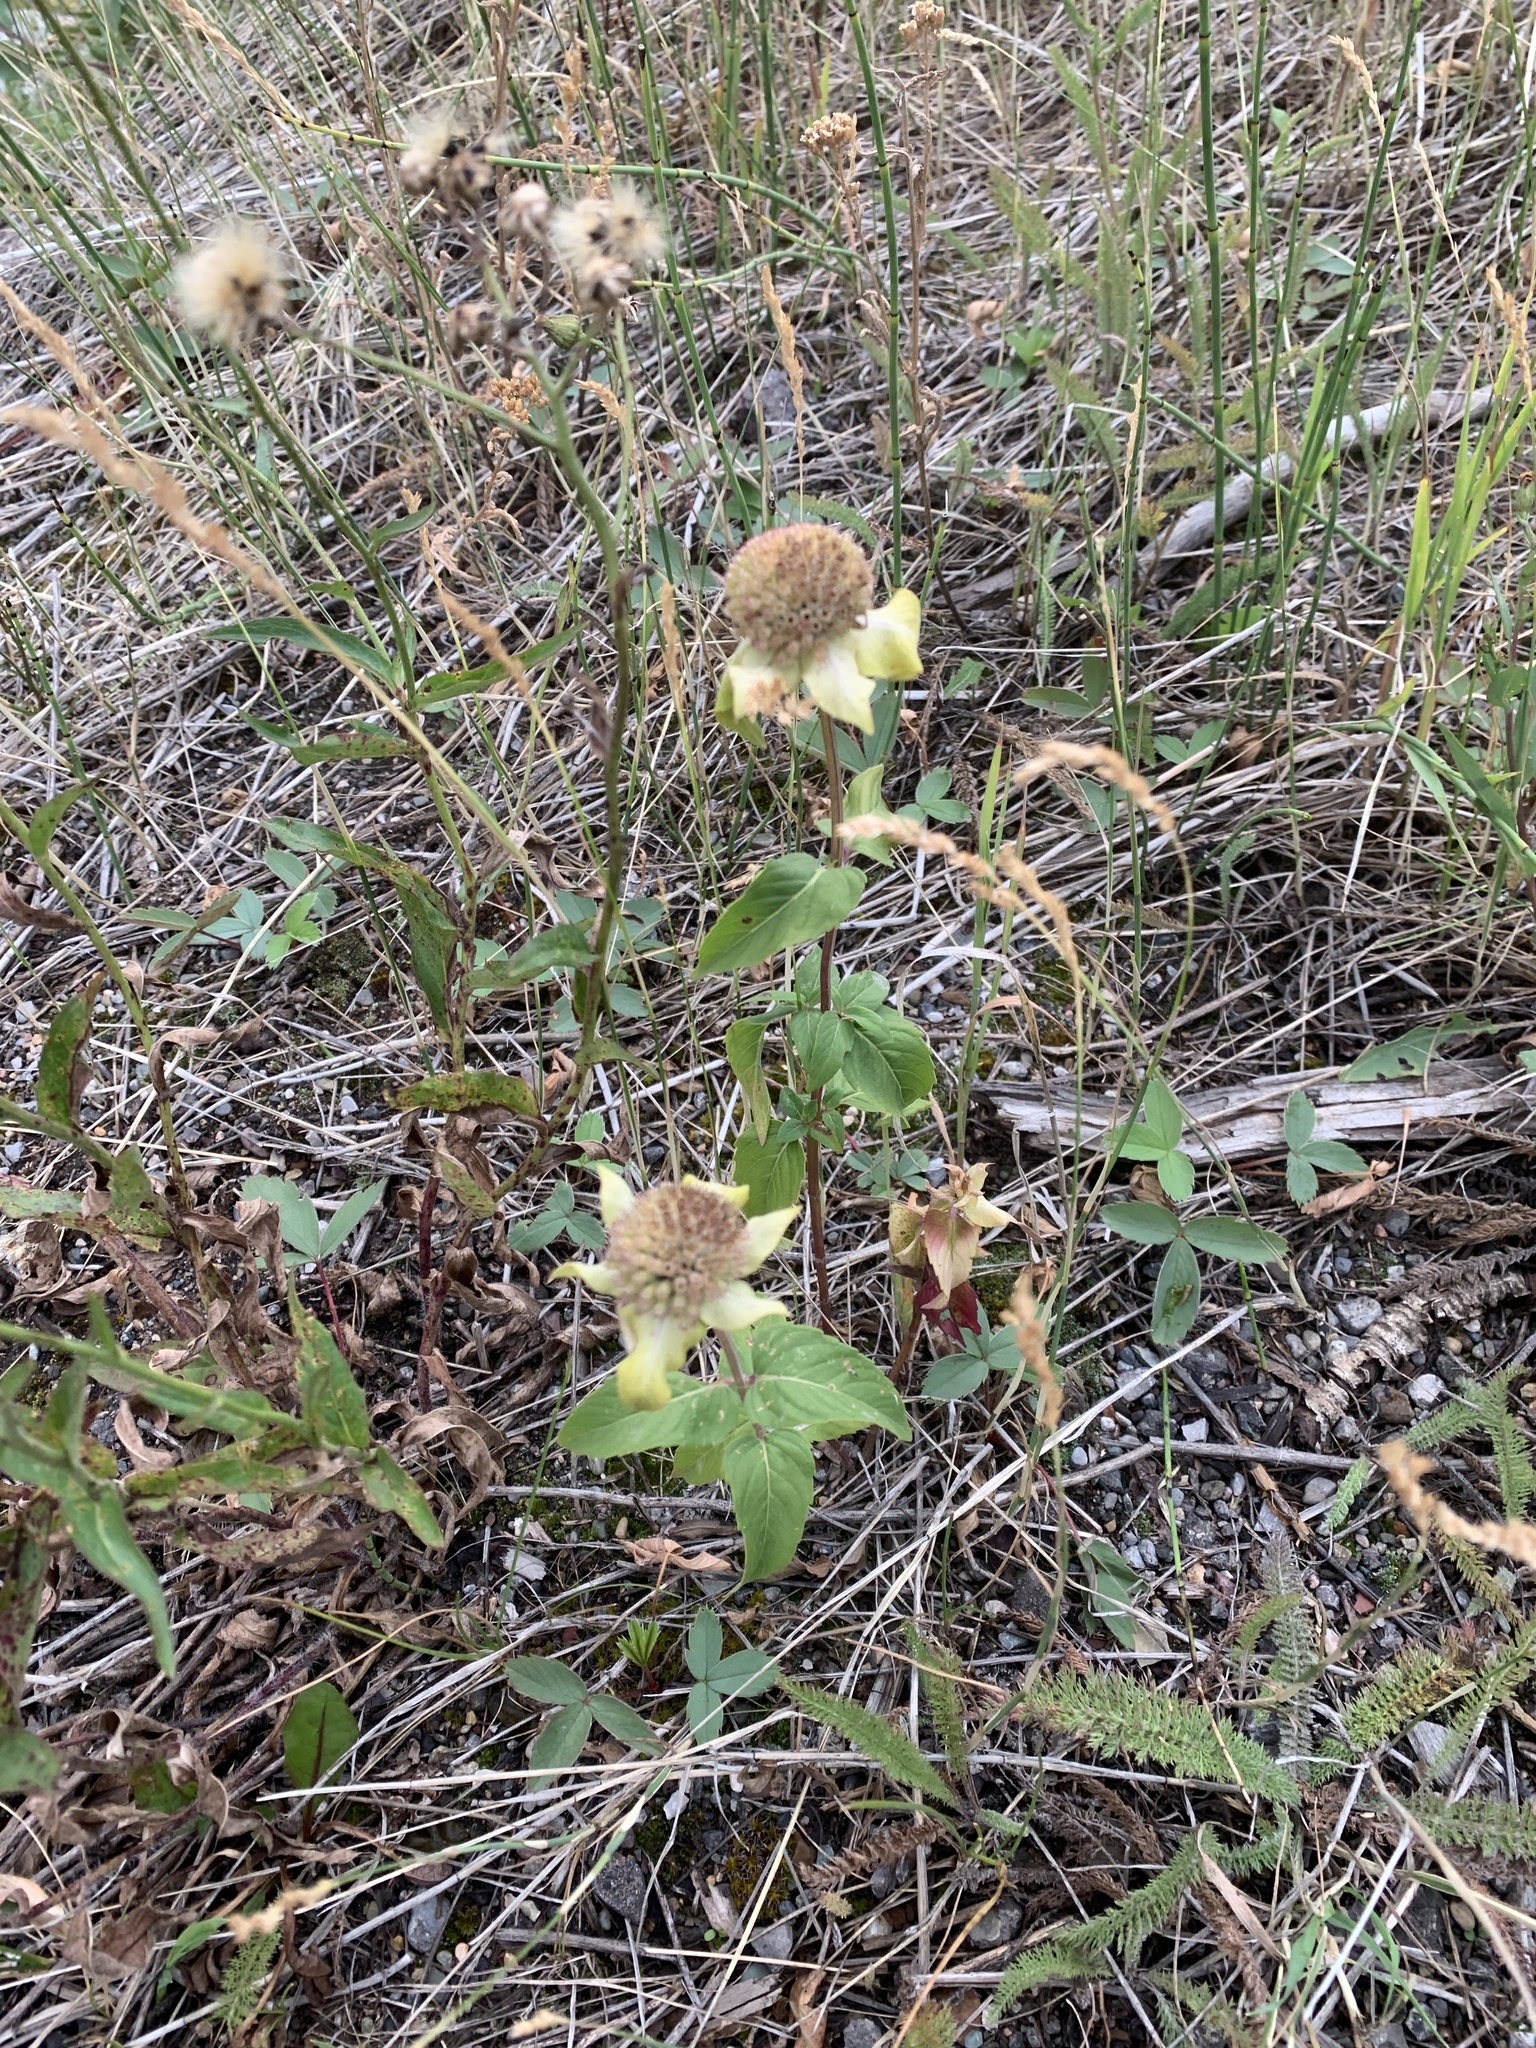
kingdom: Plantae
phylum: Tracheophyta
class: Magnoliopsida
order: Lamiales
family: Lamiaceae
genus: Monarda
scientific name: Monarda fistulosa
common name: Purple beebalm
